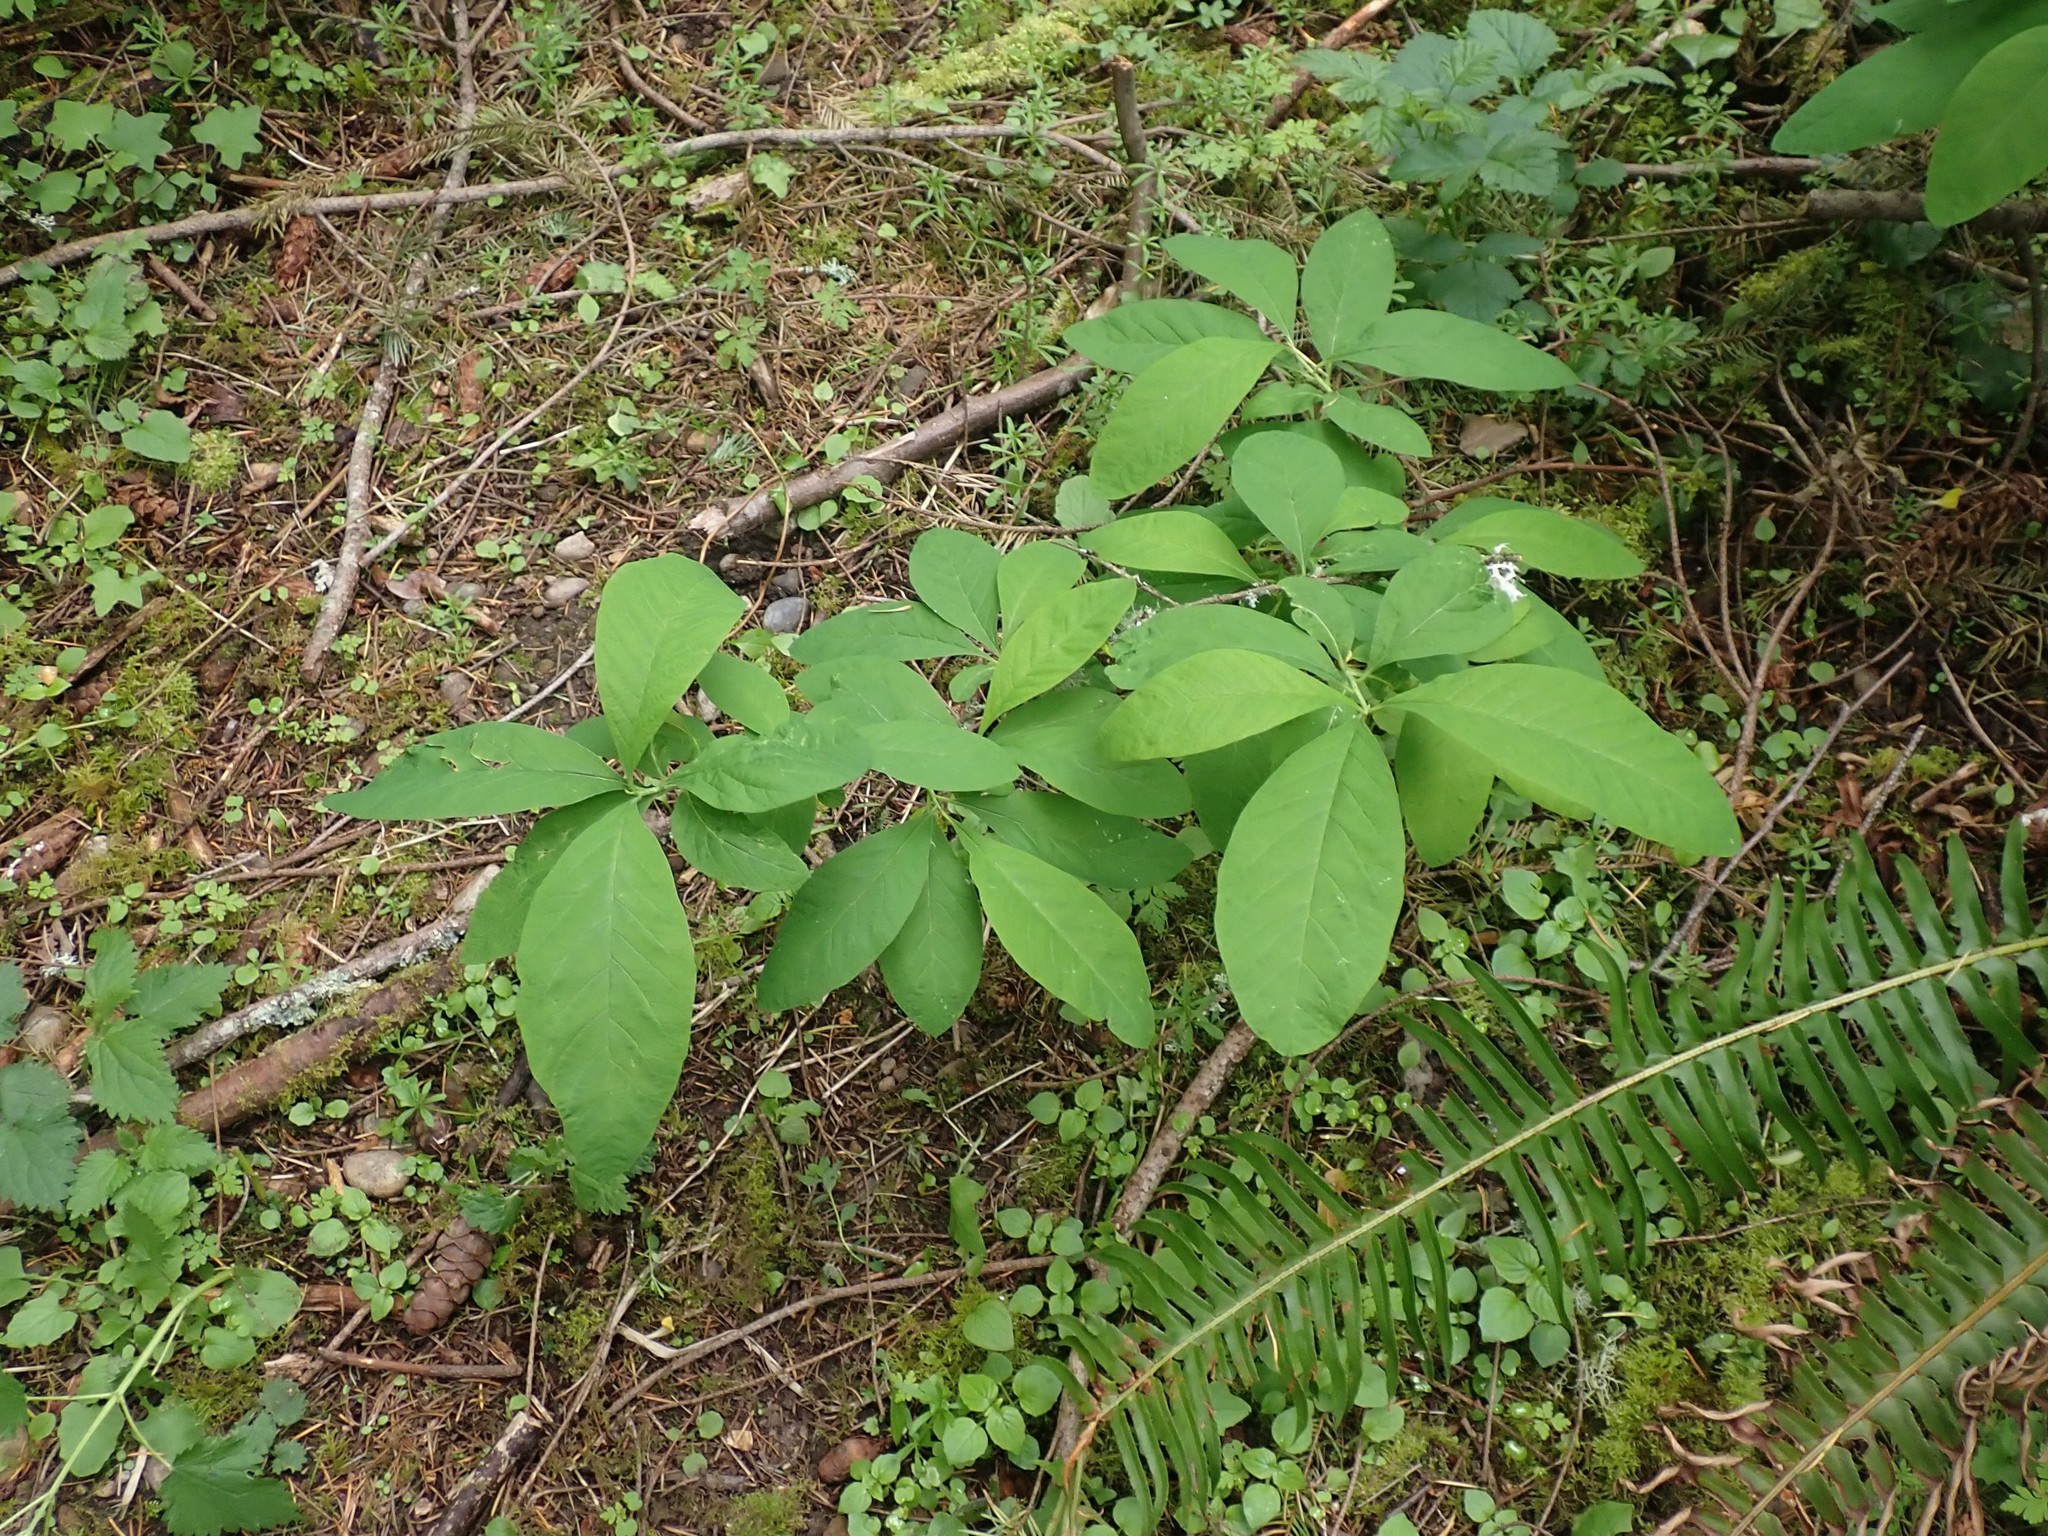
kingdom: Plantae
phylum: Tracheophyta
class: Magnoliopsida
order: Rosales
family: Rosaceae
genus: Oemleria
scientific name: Oemleria cerasiformis
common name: Osoberry
